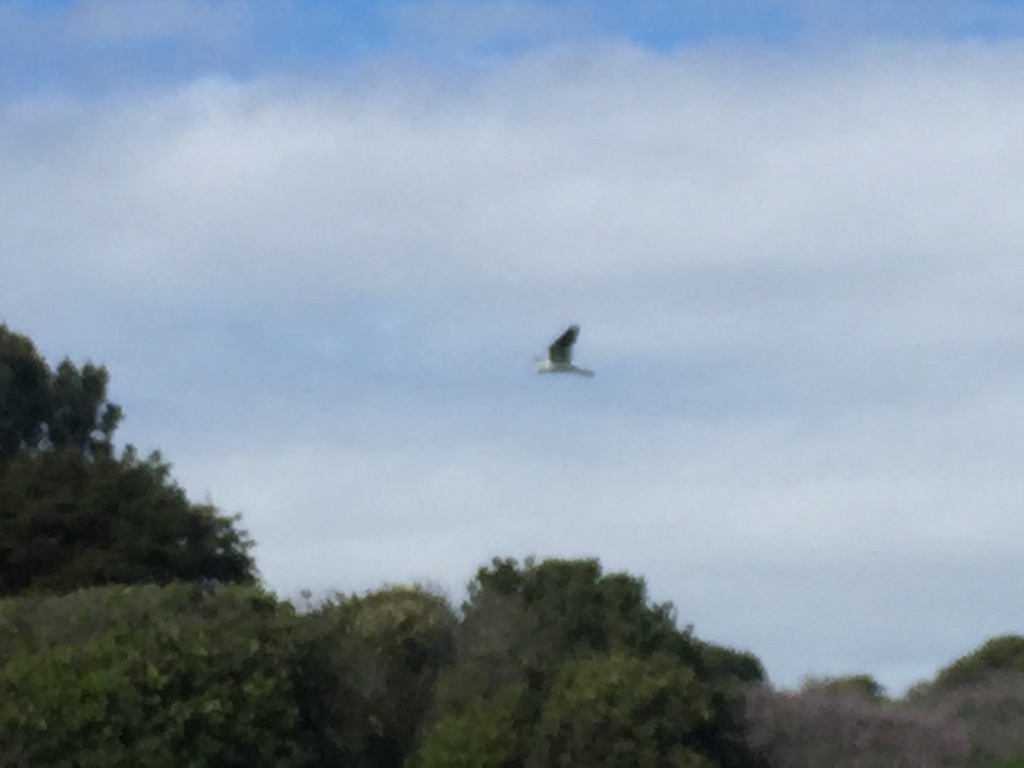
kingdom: Animalia
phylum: Chordata
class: Aves
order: Accipitriformes
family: Accipitridae
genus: Elanus
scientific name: Elanus leucurus
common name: White-tailed kite
